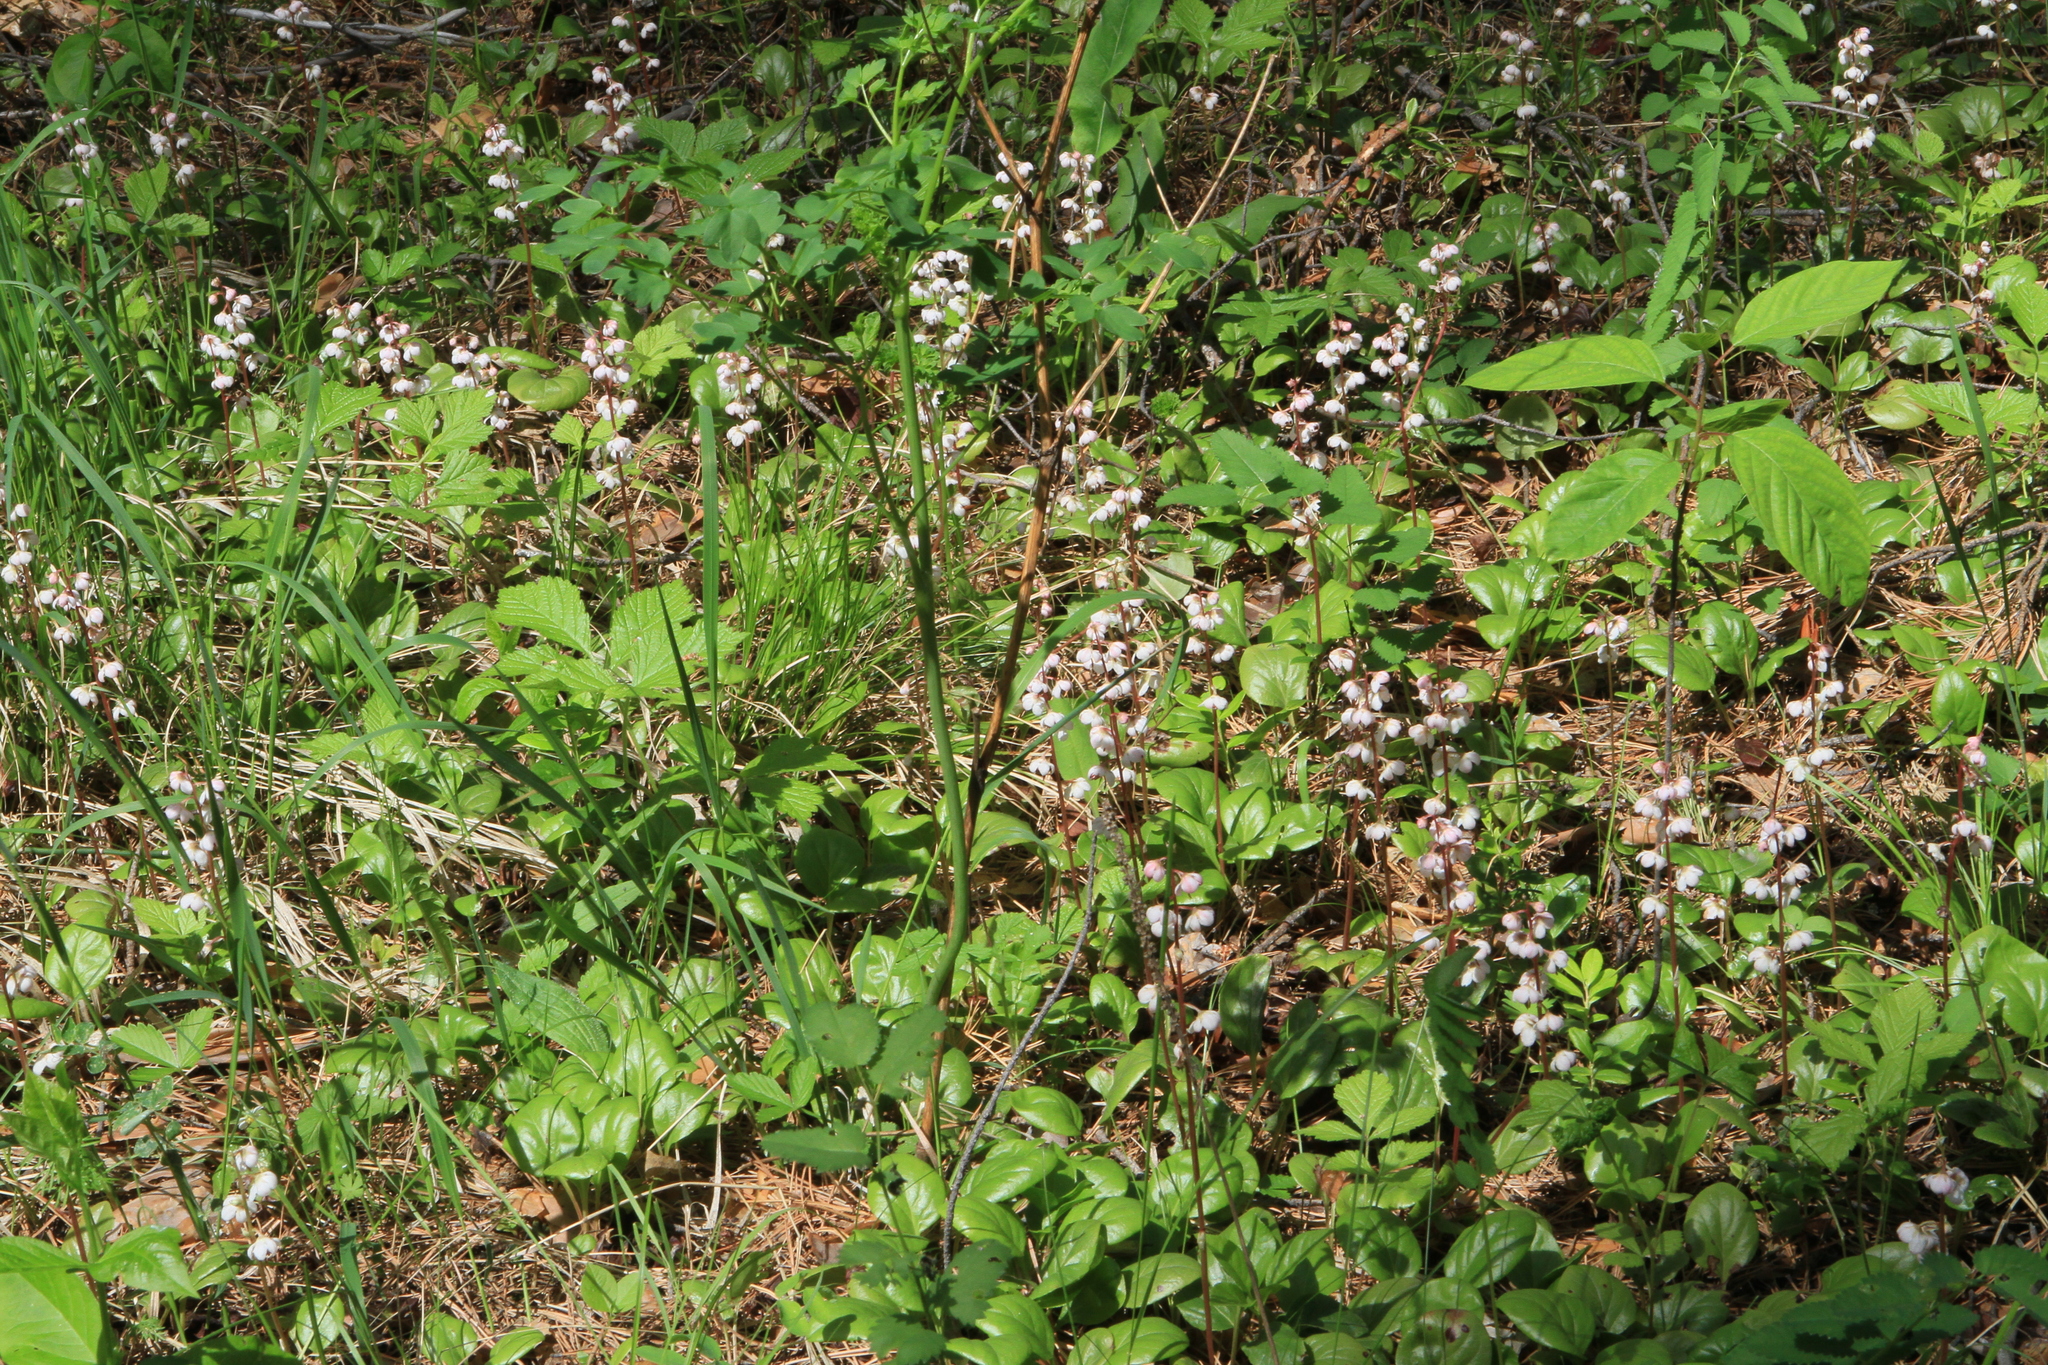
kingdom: Plantae
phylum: Tracheophyta
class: Magnoliopsida
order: Ericales
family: Ericaceae
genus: Pyrola
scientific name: Pyrola asarifolia
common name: Bog wintergreen
